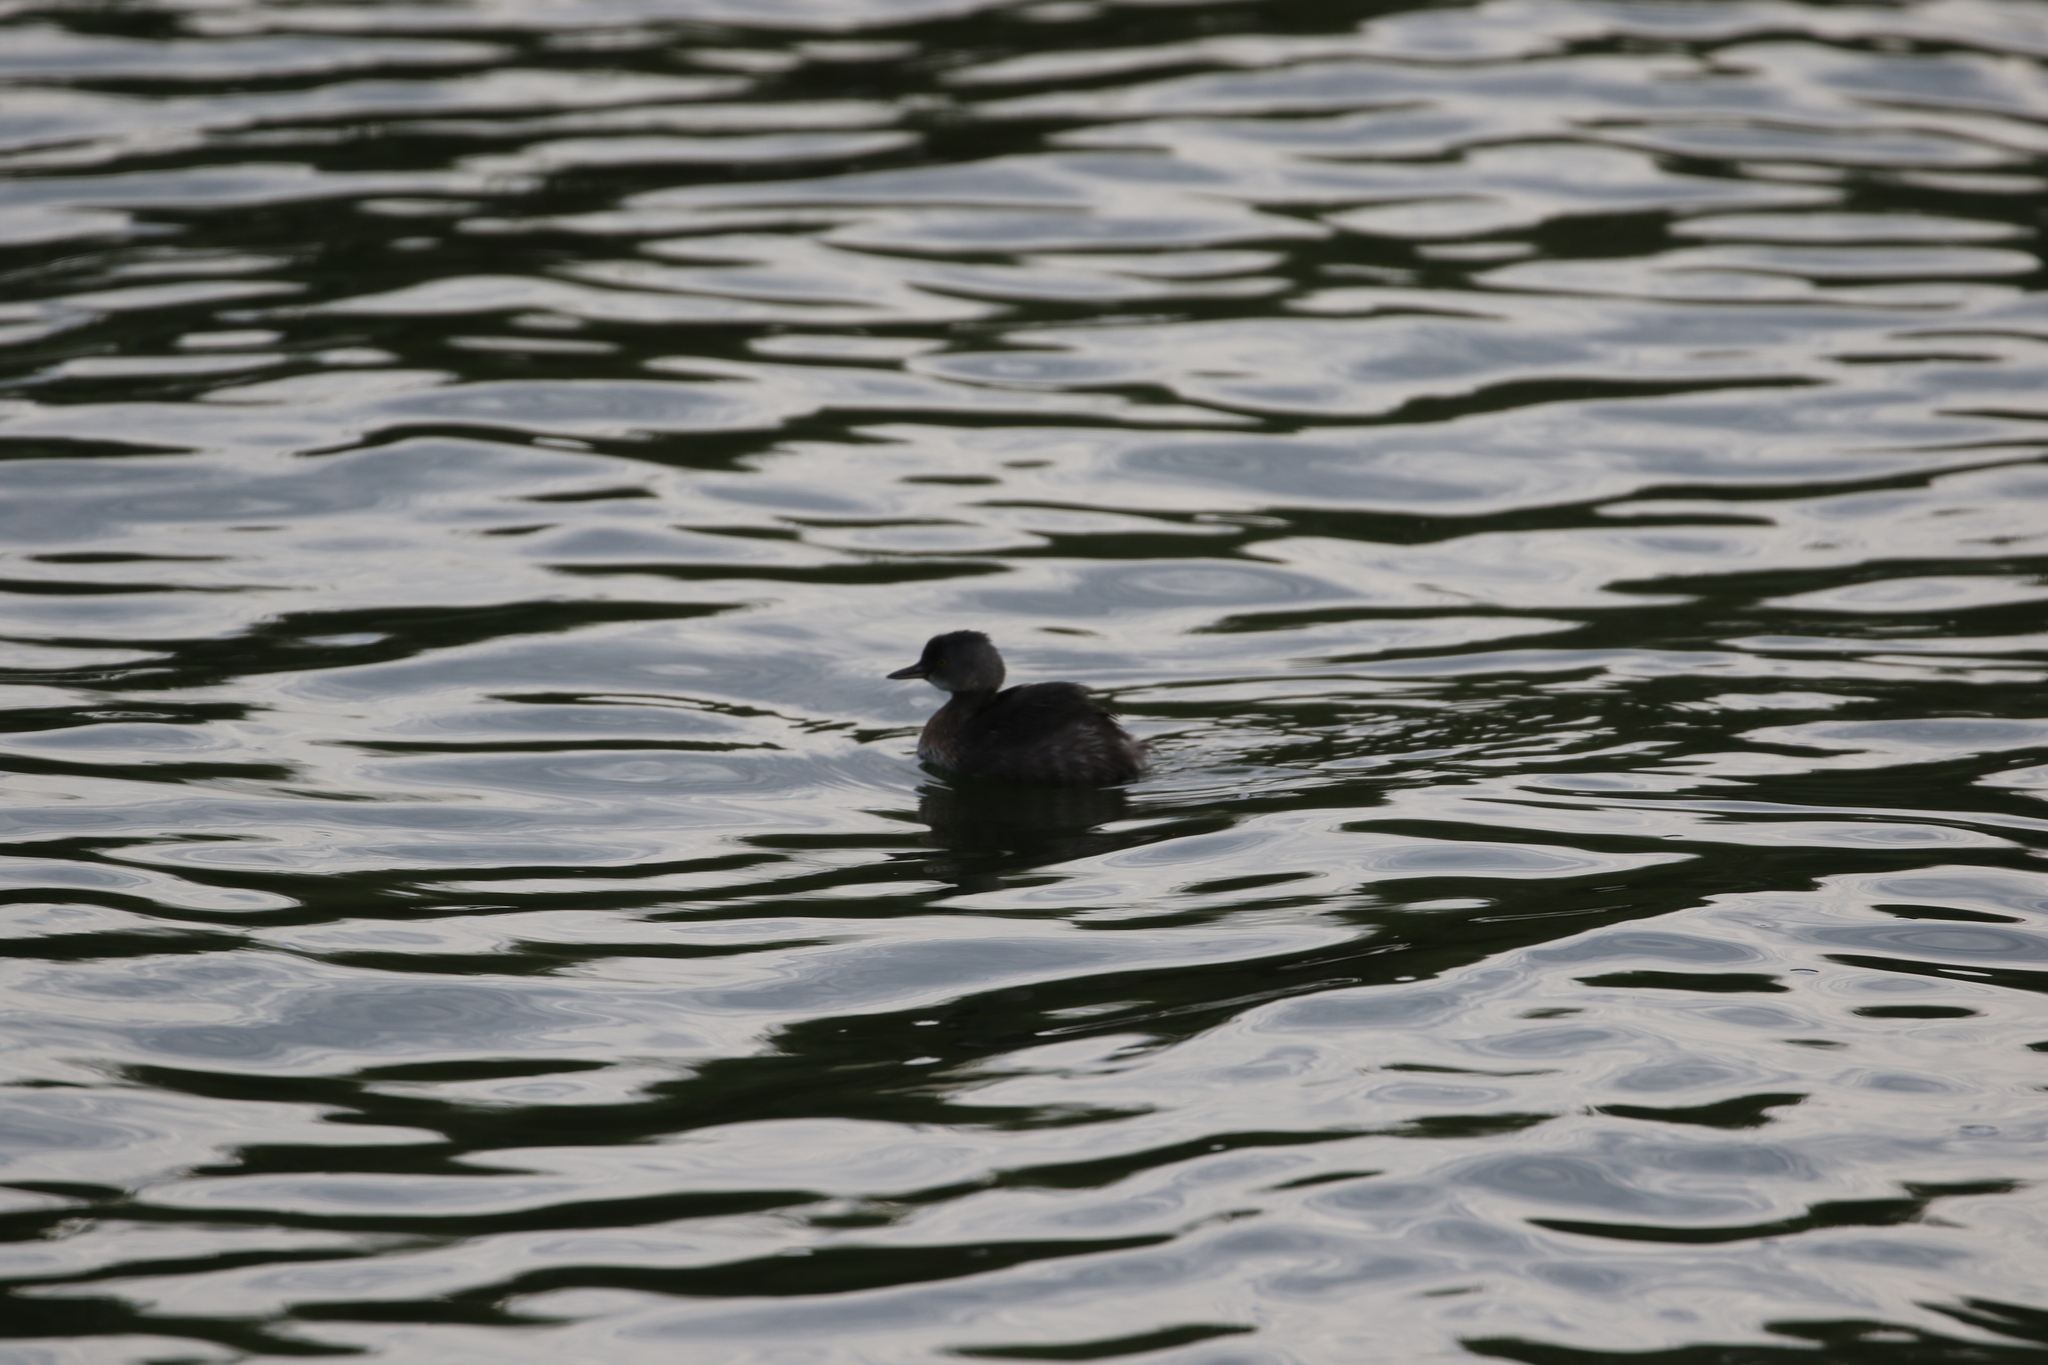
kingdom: Animalia
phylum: Chordata
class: Aves
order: Podicipediformes
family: Podicipedidae
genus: Tachybaptus
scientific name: Tachybaptus dominicus
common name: Least grebe
